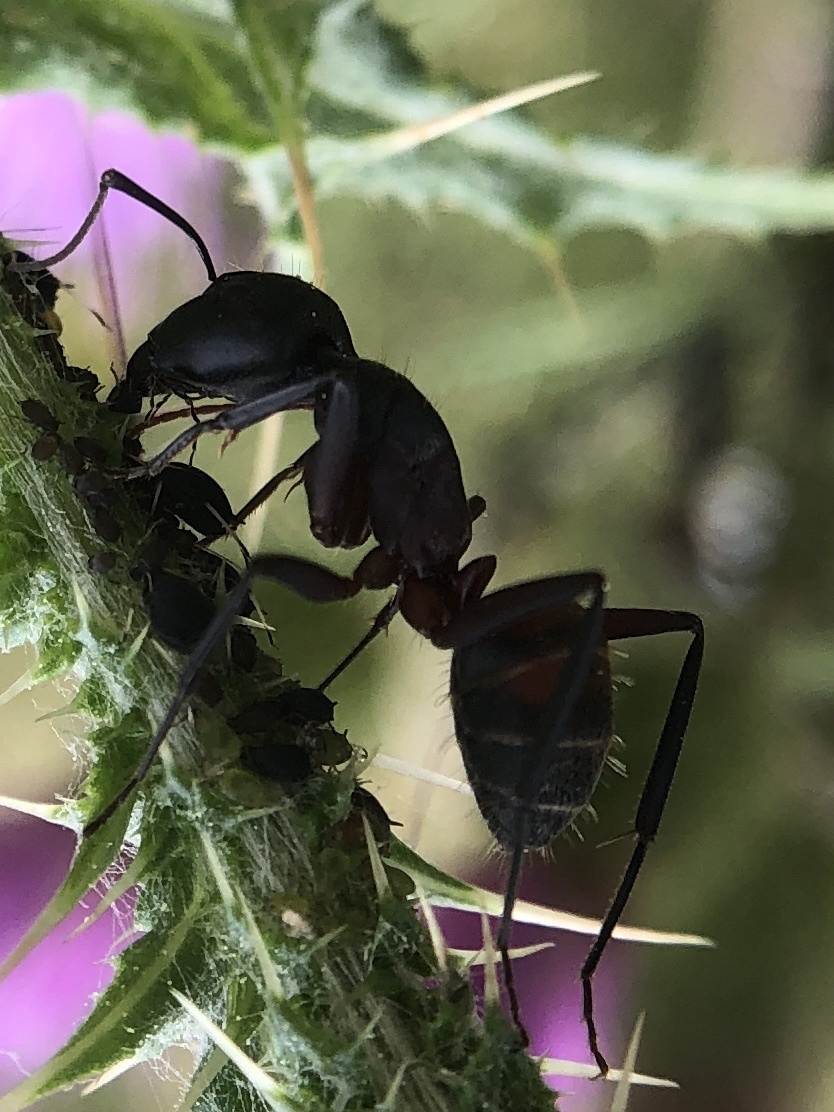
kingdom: Animalia
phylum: Arthropoda
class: Insecta
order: Hymenoptera
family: Formicidae
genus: Camponotus
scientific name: Camponotus cruentatus
